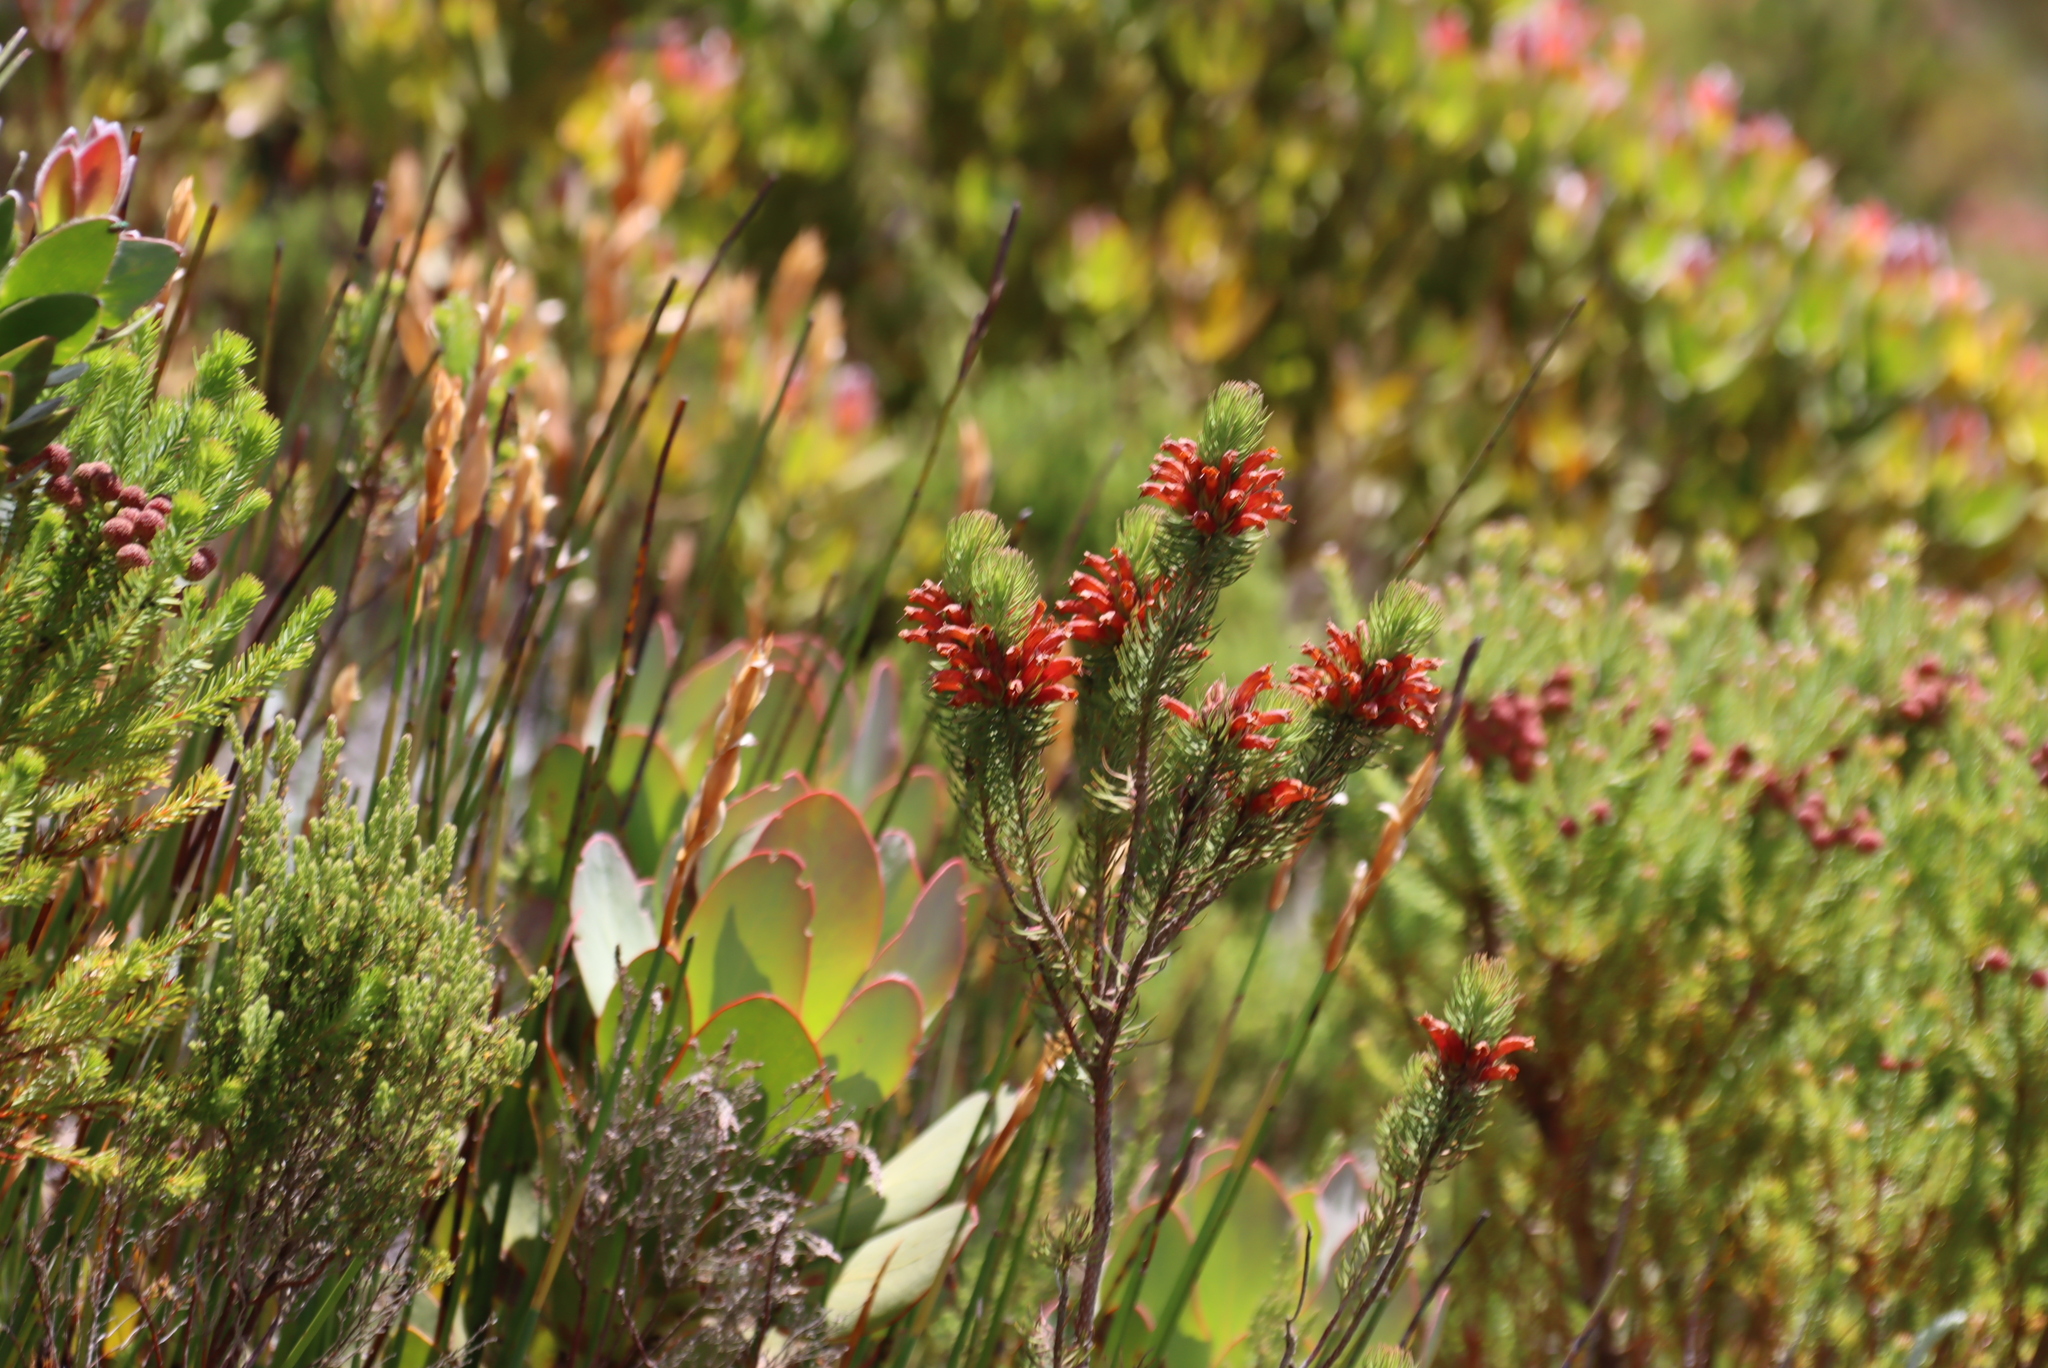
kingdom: Plantae
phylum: Tracheophyta
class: Magnoliopsida
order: Ericales
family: Ericaceae
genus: Erica
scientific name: Erica viscaria
